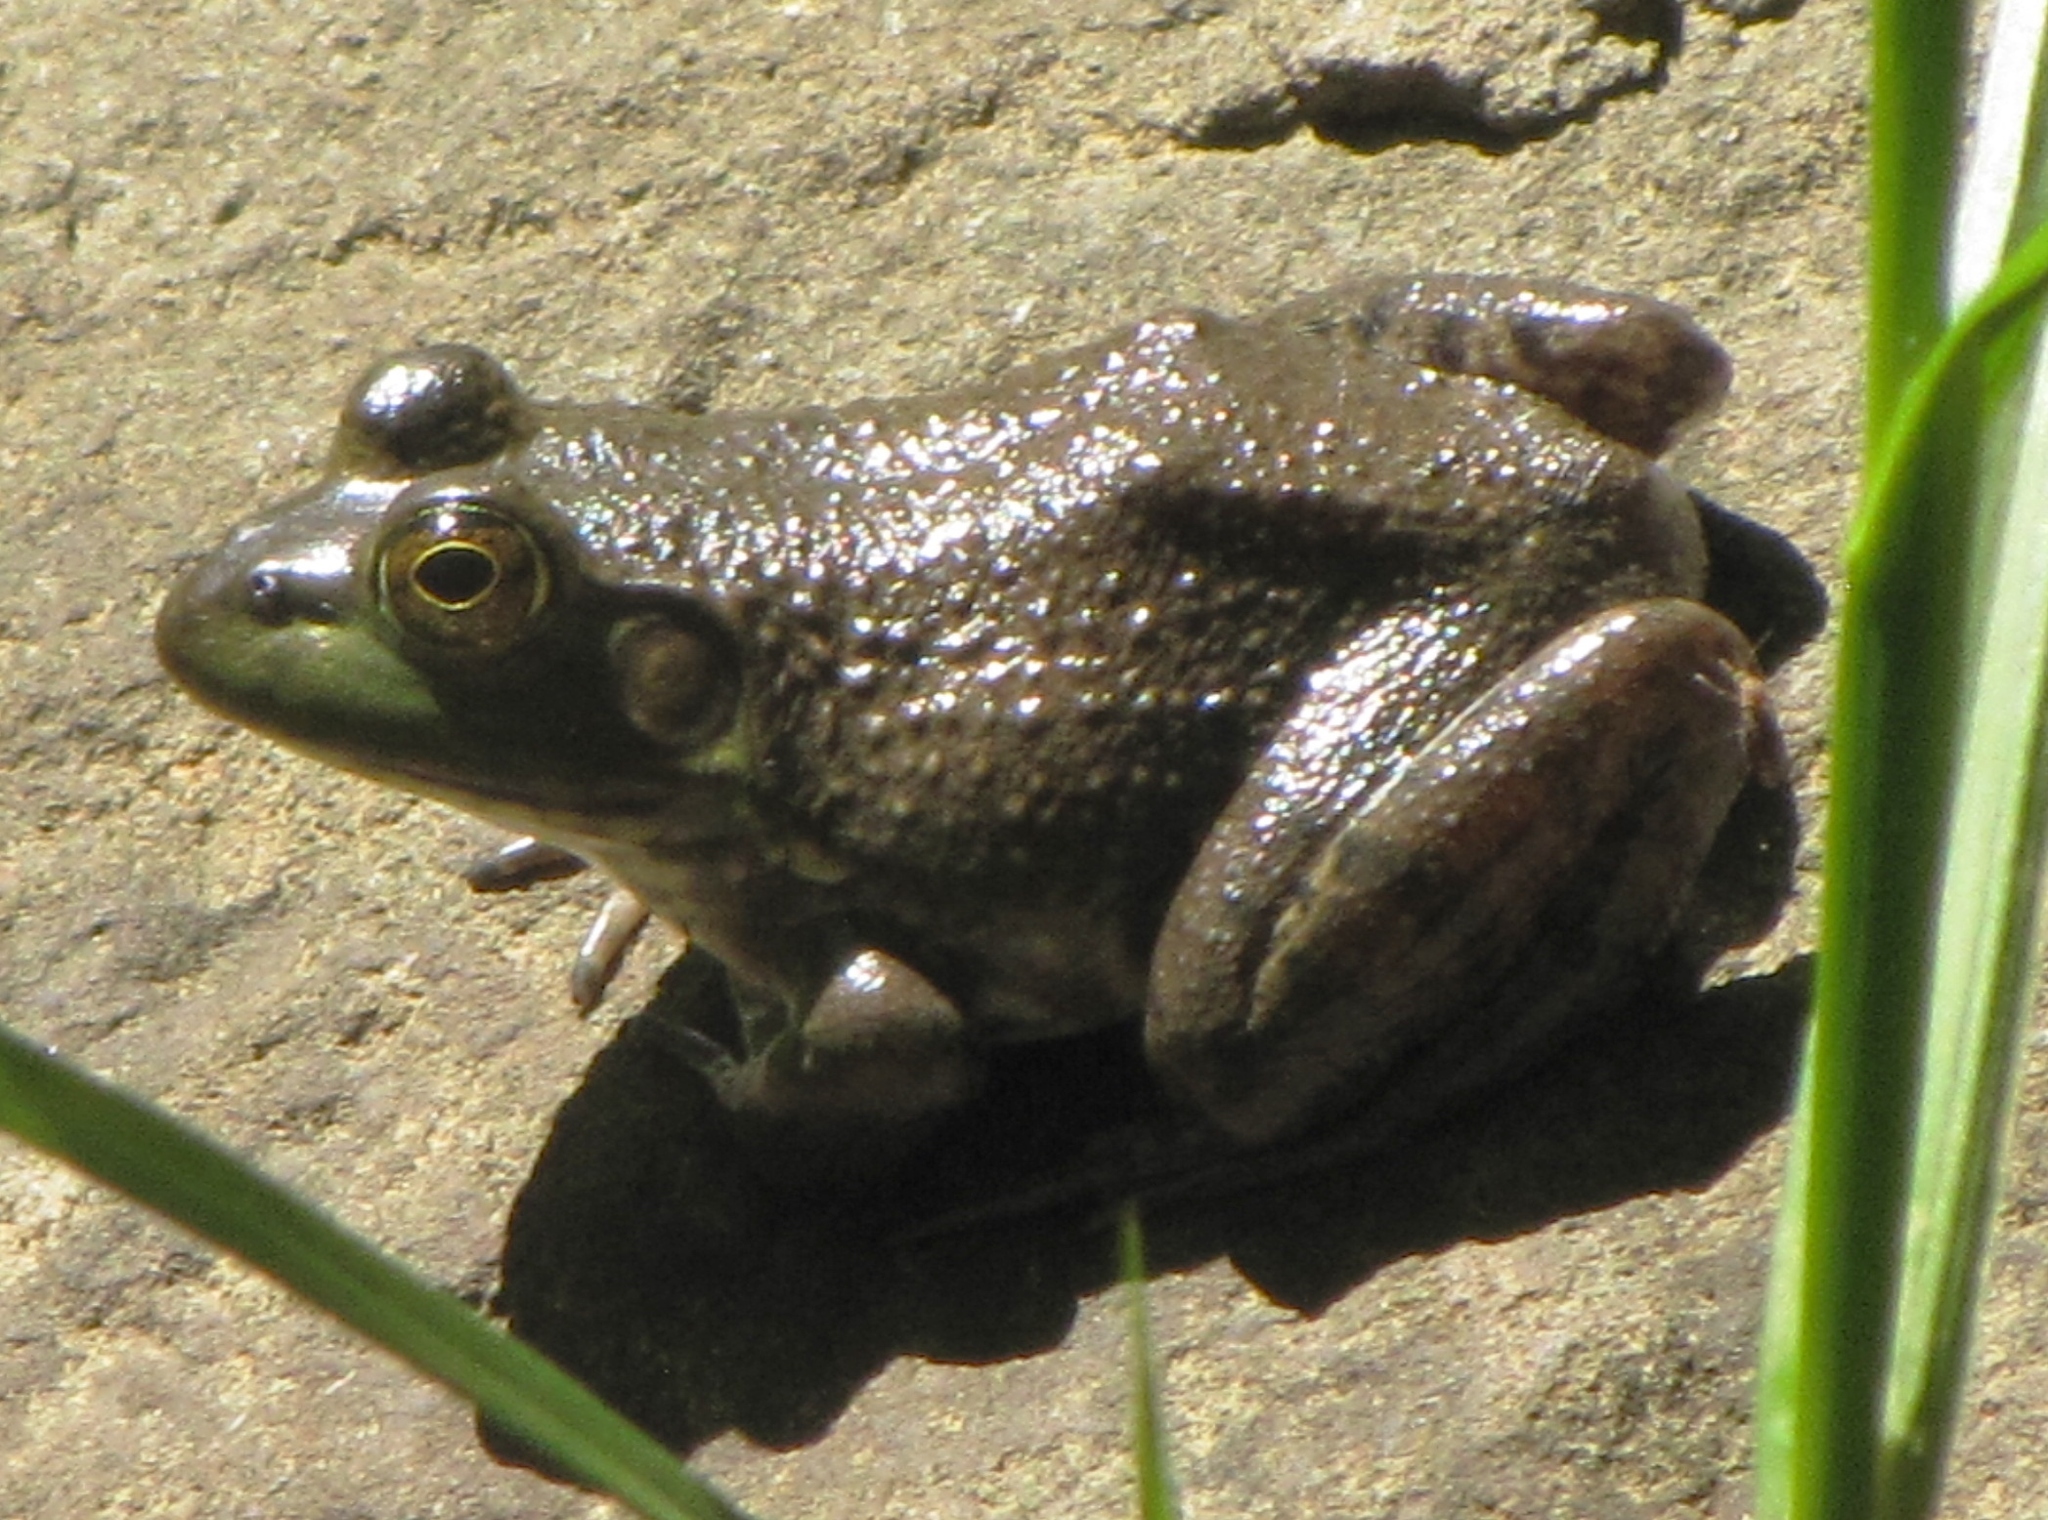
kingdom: Animalia
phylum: Chordata
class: Amphibia
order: Anura
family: Ranidae
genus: Lithobates
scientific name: Lithobates catesbeianus
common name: American bullfrog
